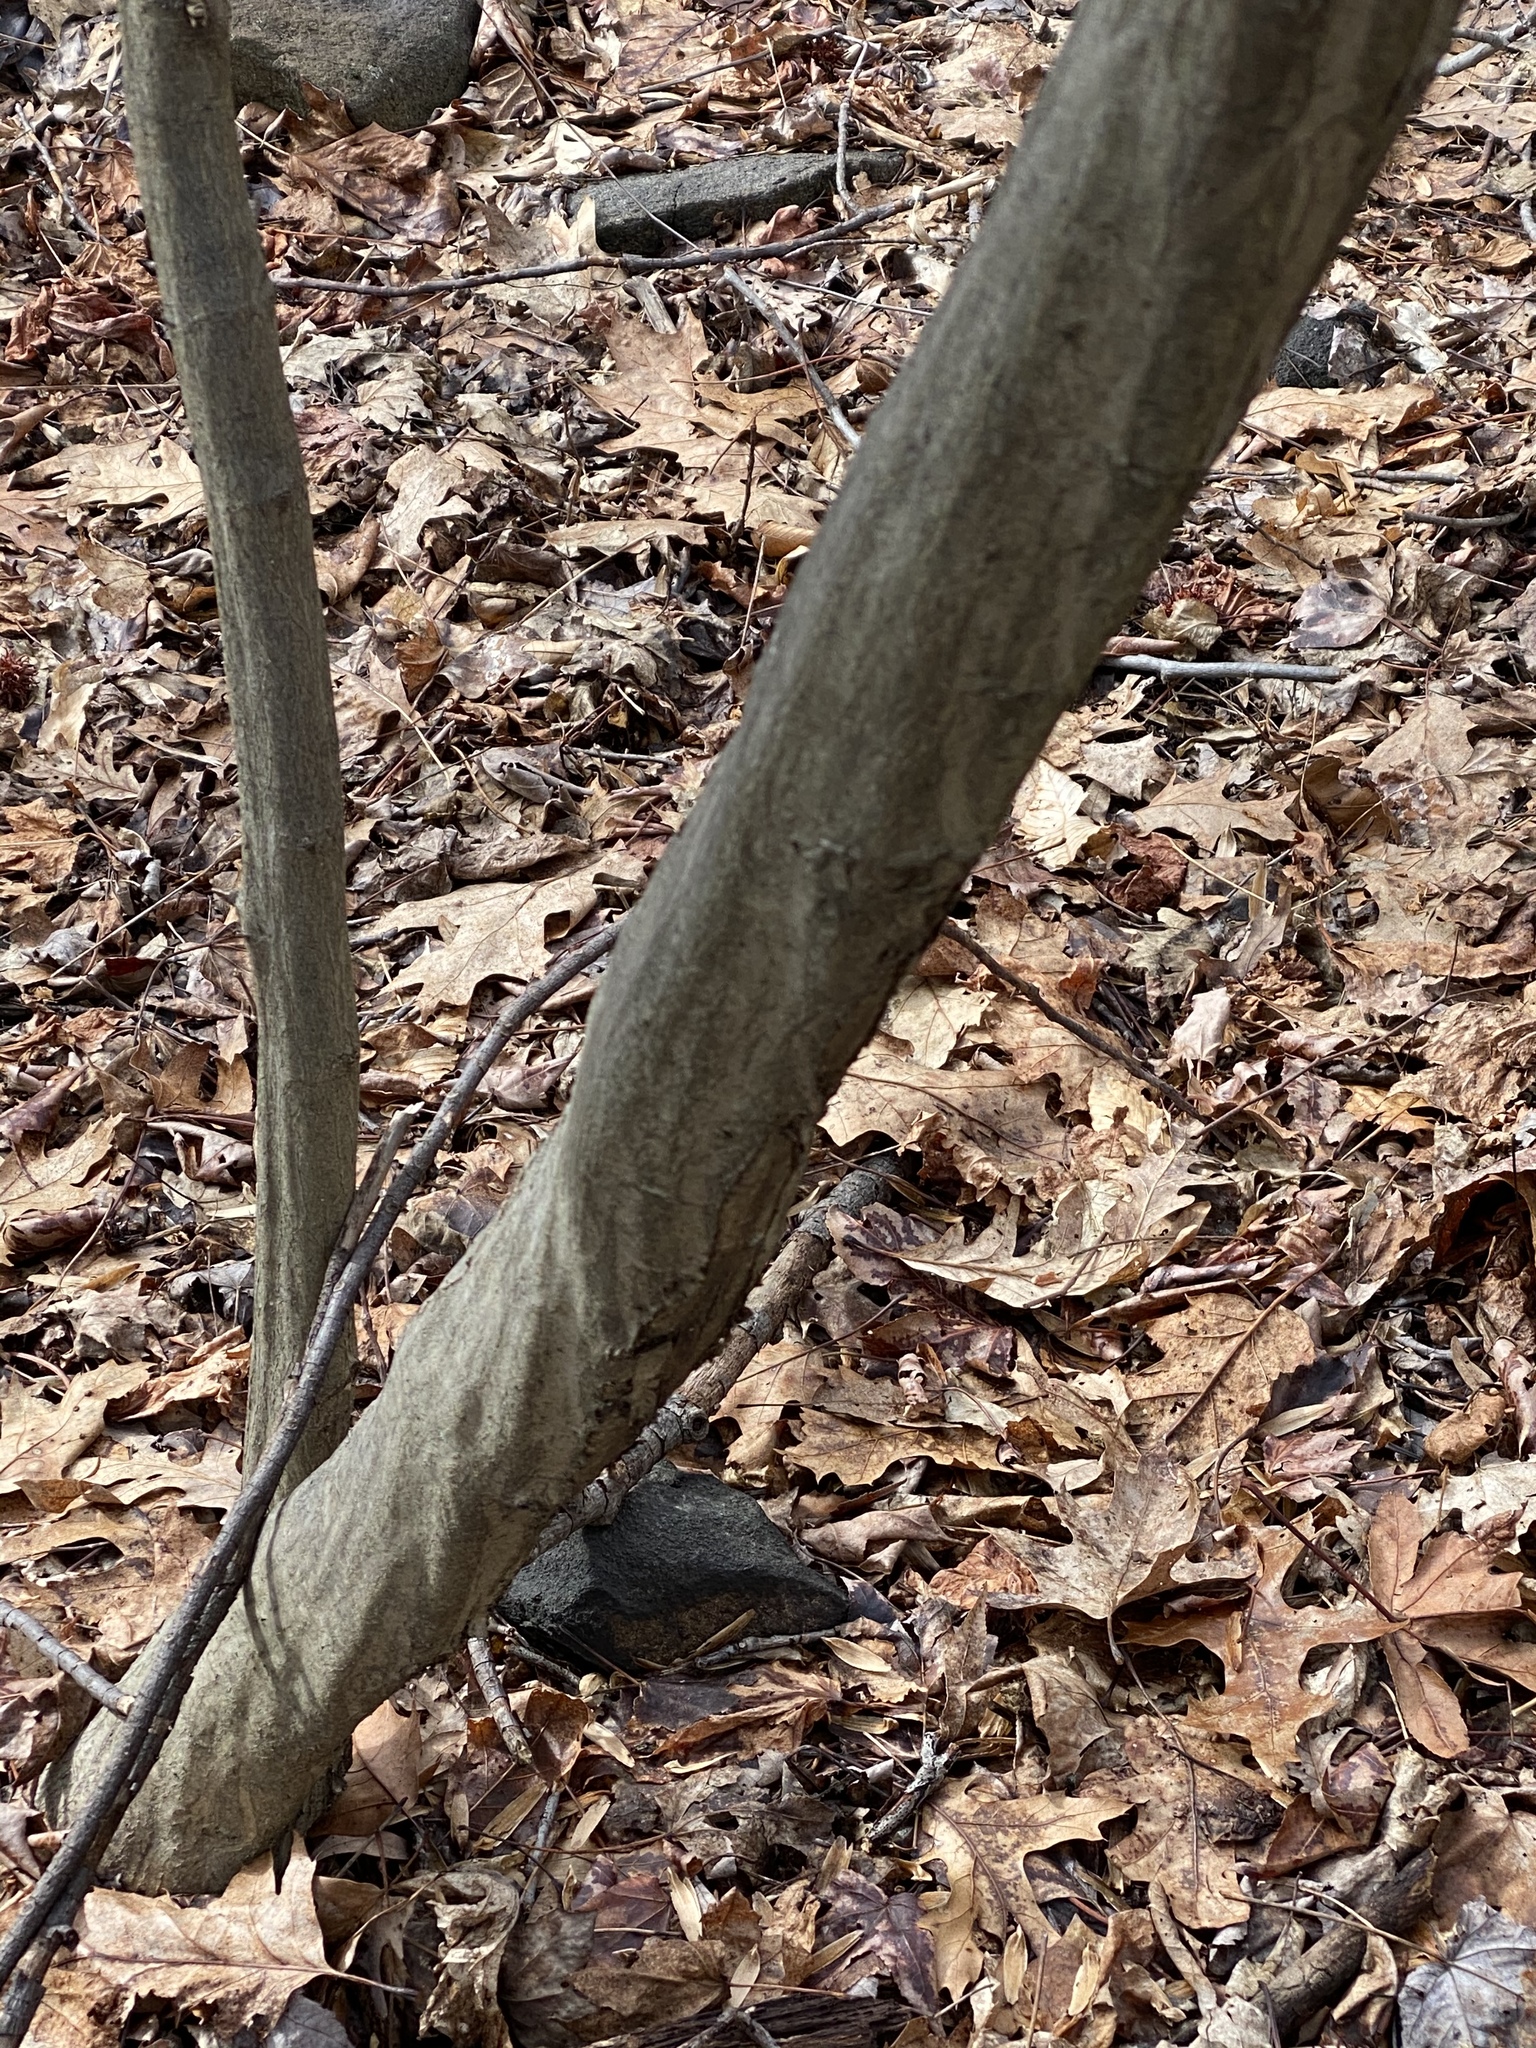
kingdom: Plantae
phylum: Tracheophyta
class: Magnoliopsida
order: Fagales
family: Betulaceae
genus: Carpinus
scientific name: Carpinus caroliniana
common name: American hornbeam
